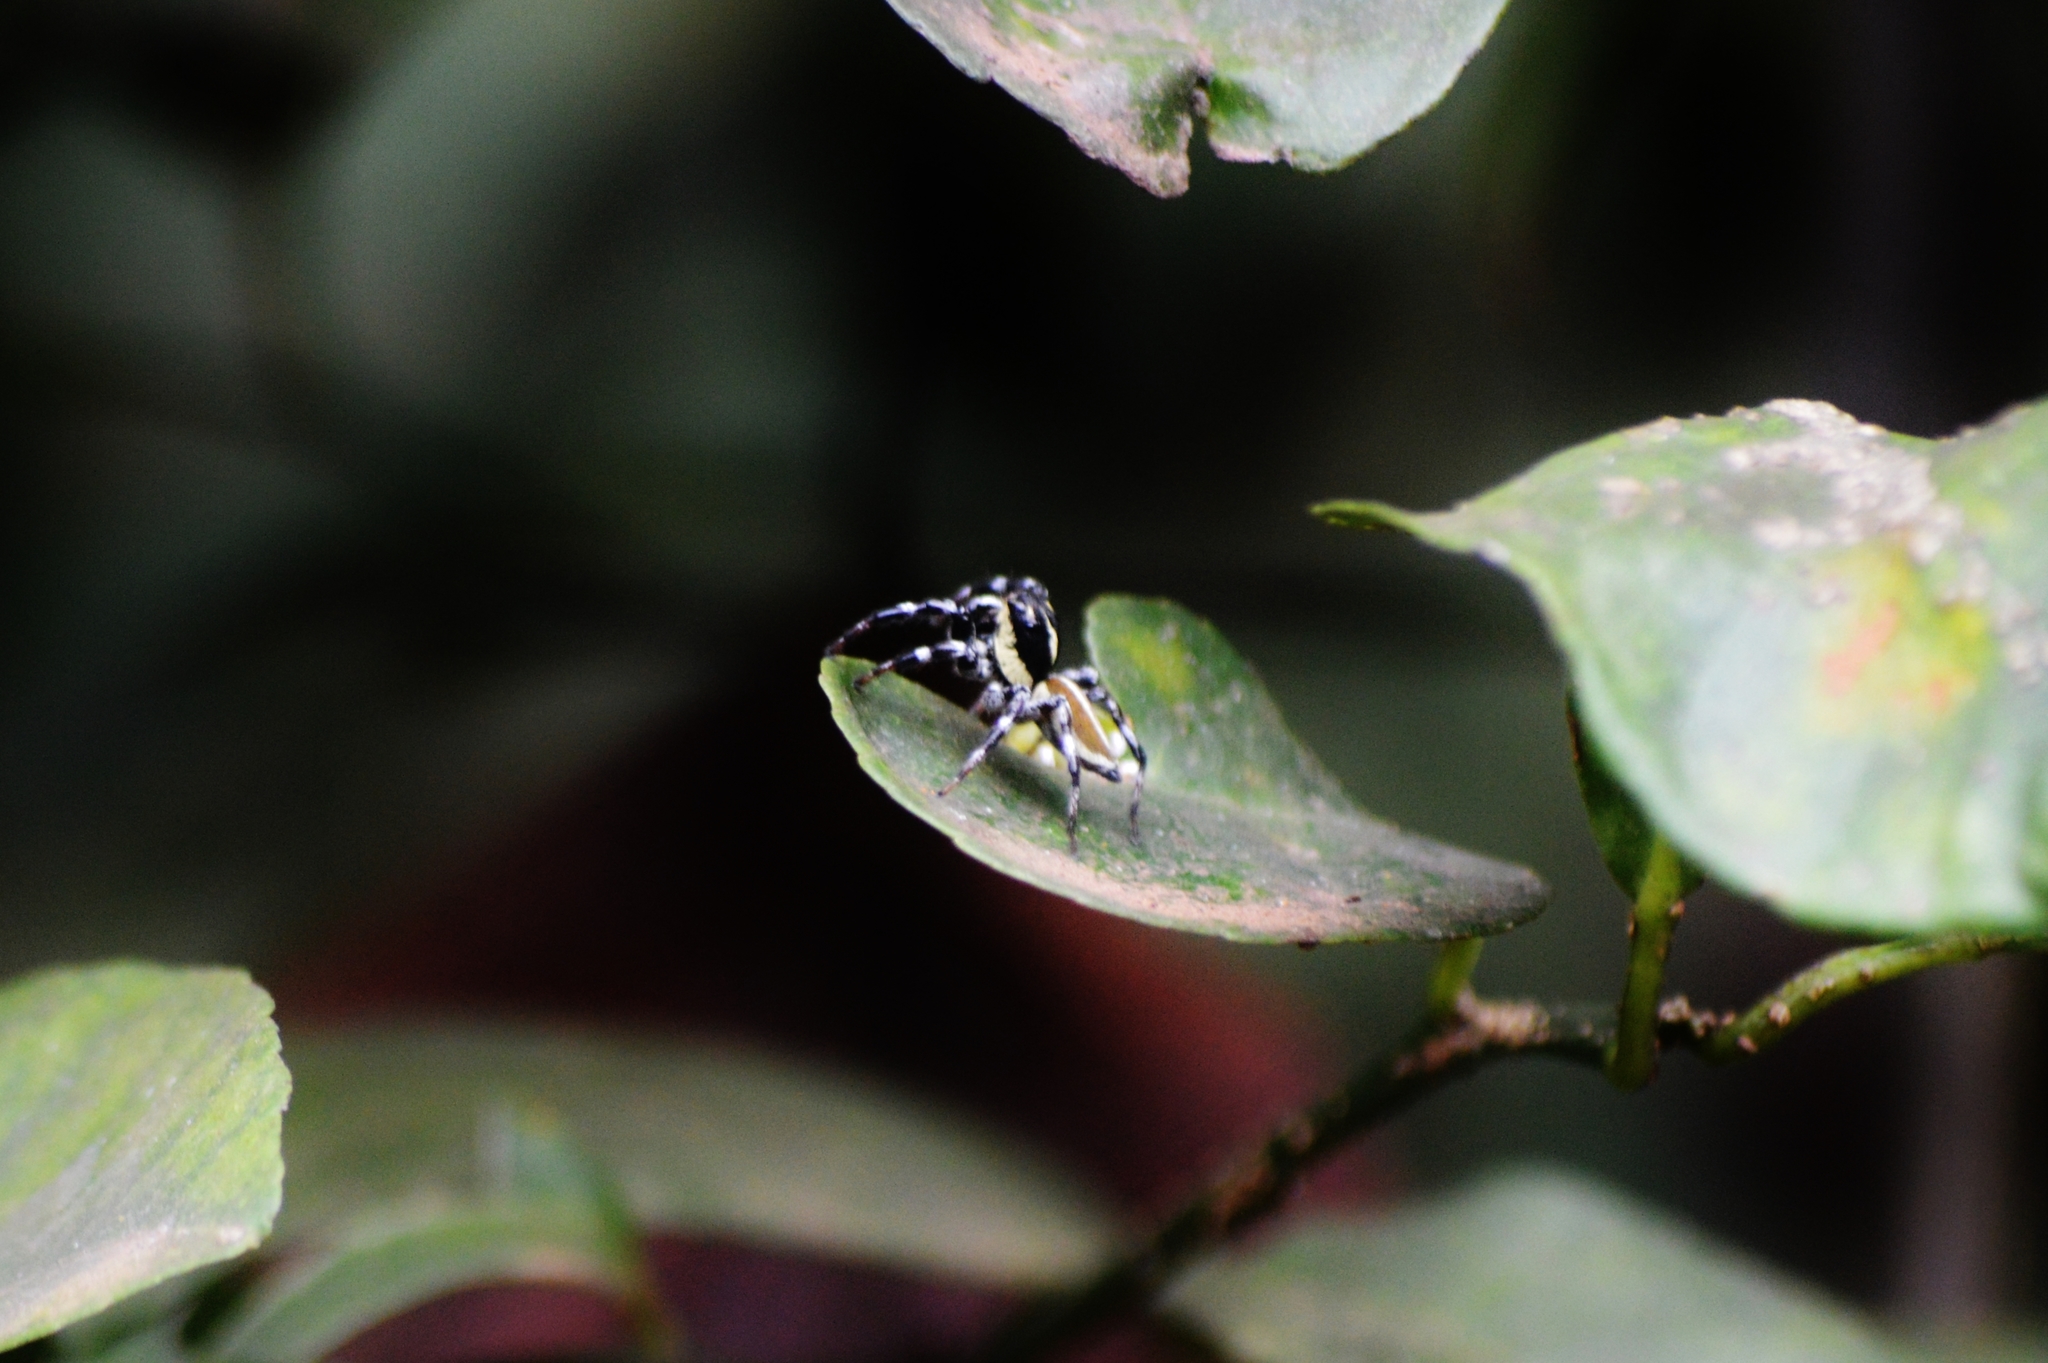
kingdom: Animalia
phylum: Arthropoda
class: Arachnida
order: Araneae
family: Salticidae
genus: Phiale
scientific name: Phiale tristis
